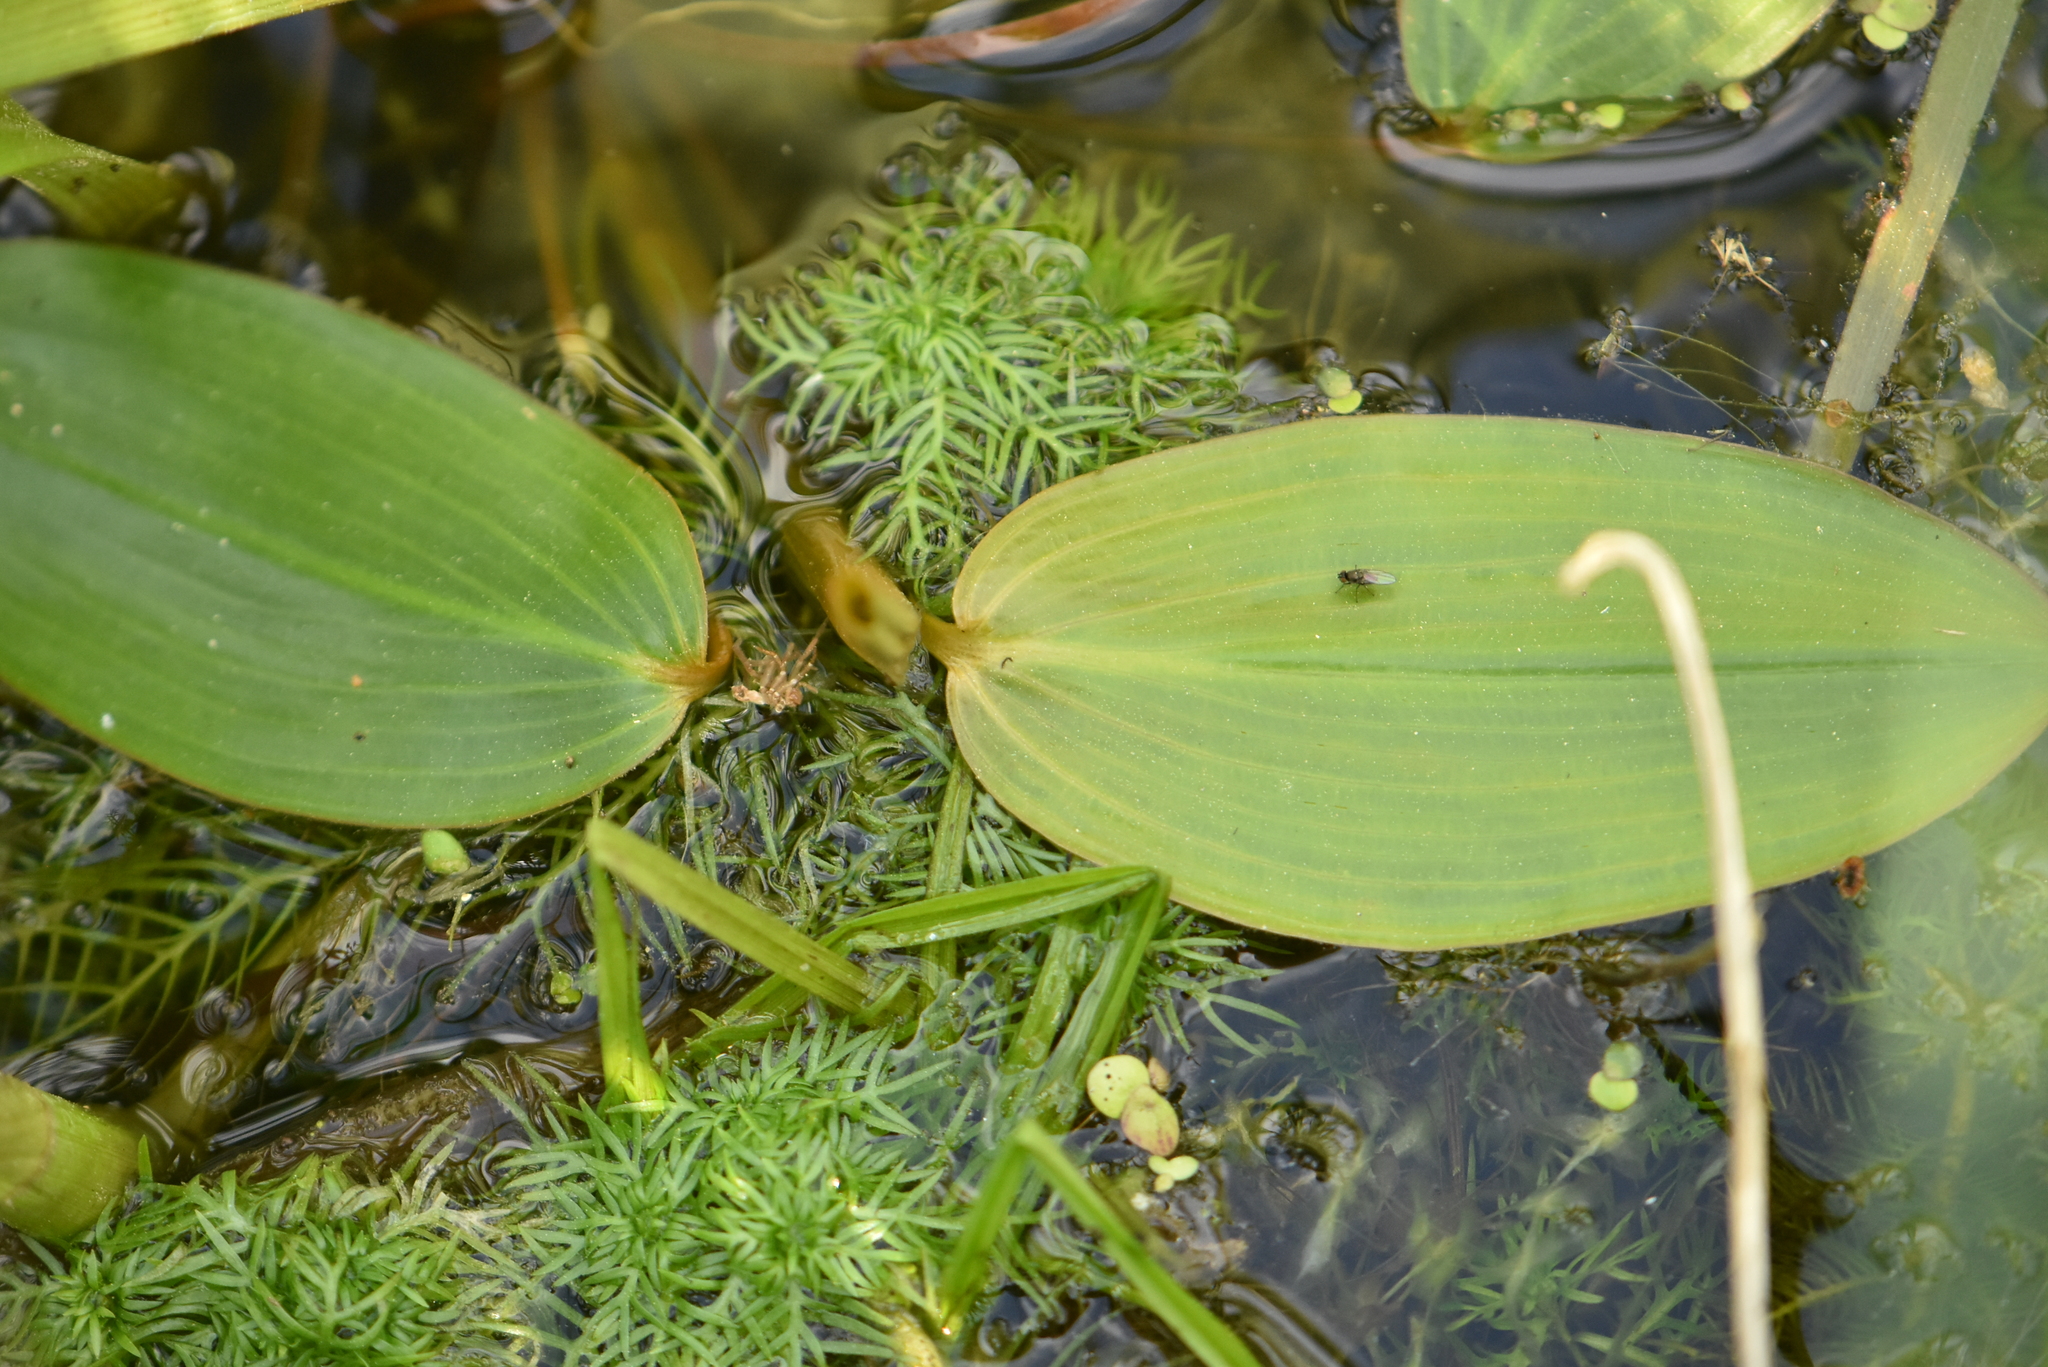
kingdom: Plantae
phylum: Tracheophyta
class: Liliopsida
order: Alismatales
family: Potamogetonaceae
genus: Potamogeton
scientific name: Potamogeton natans
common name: Broad-leaved pondweed
